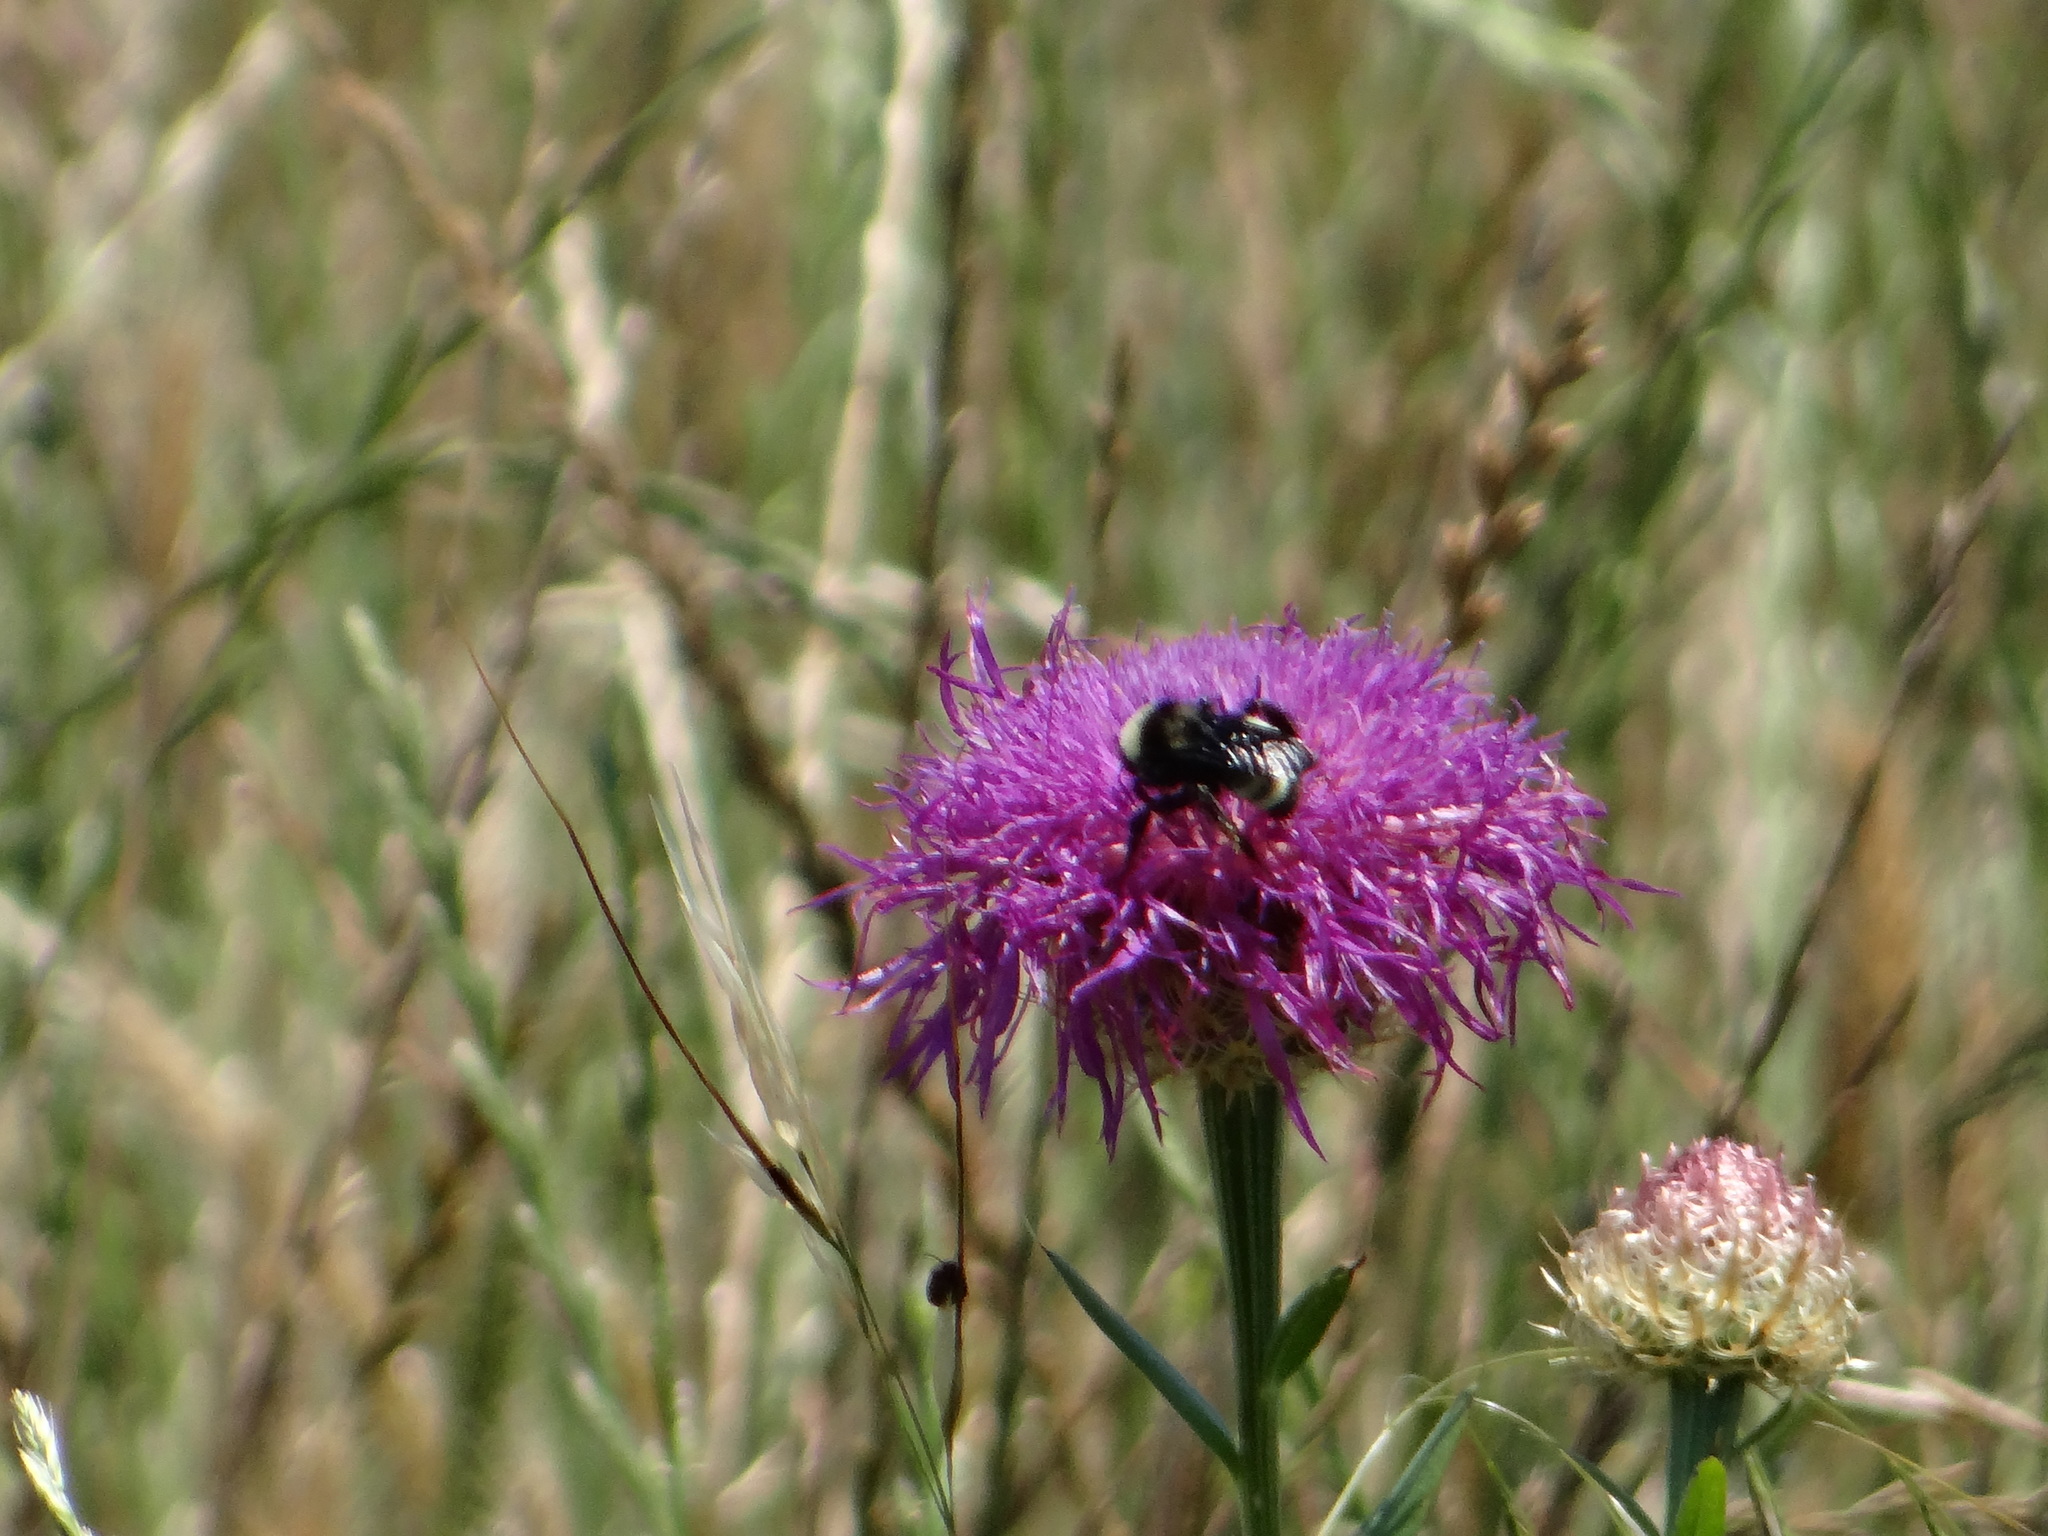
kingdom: Animalia
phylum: Arthropoda
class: Insecta
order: Hymenoptera
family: Apidae
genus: Bombus
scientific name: Bombus pensylvanicus
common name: Bumble bee
